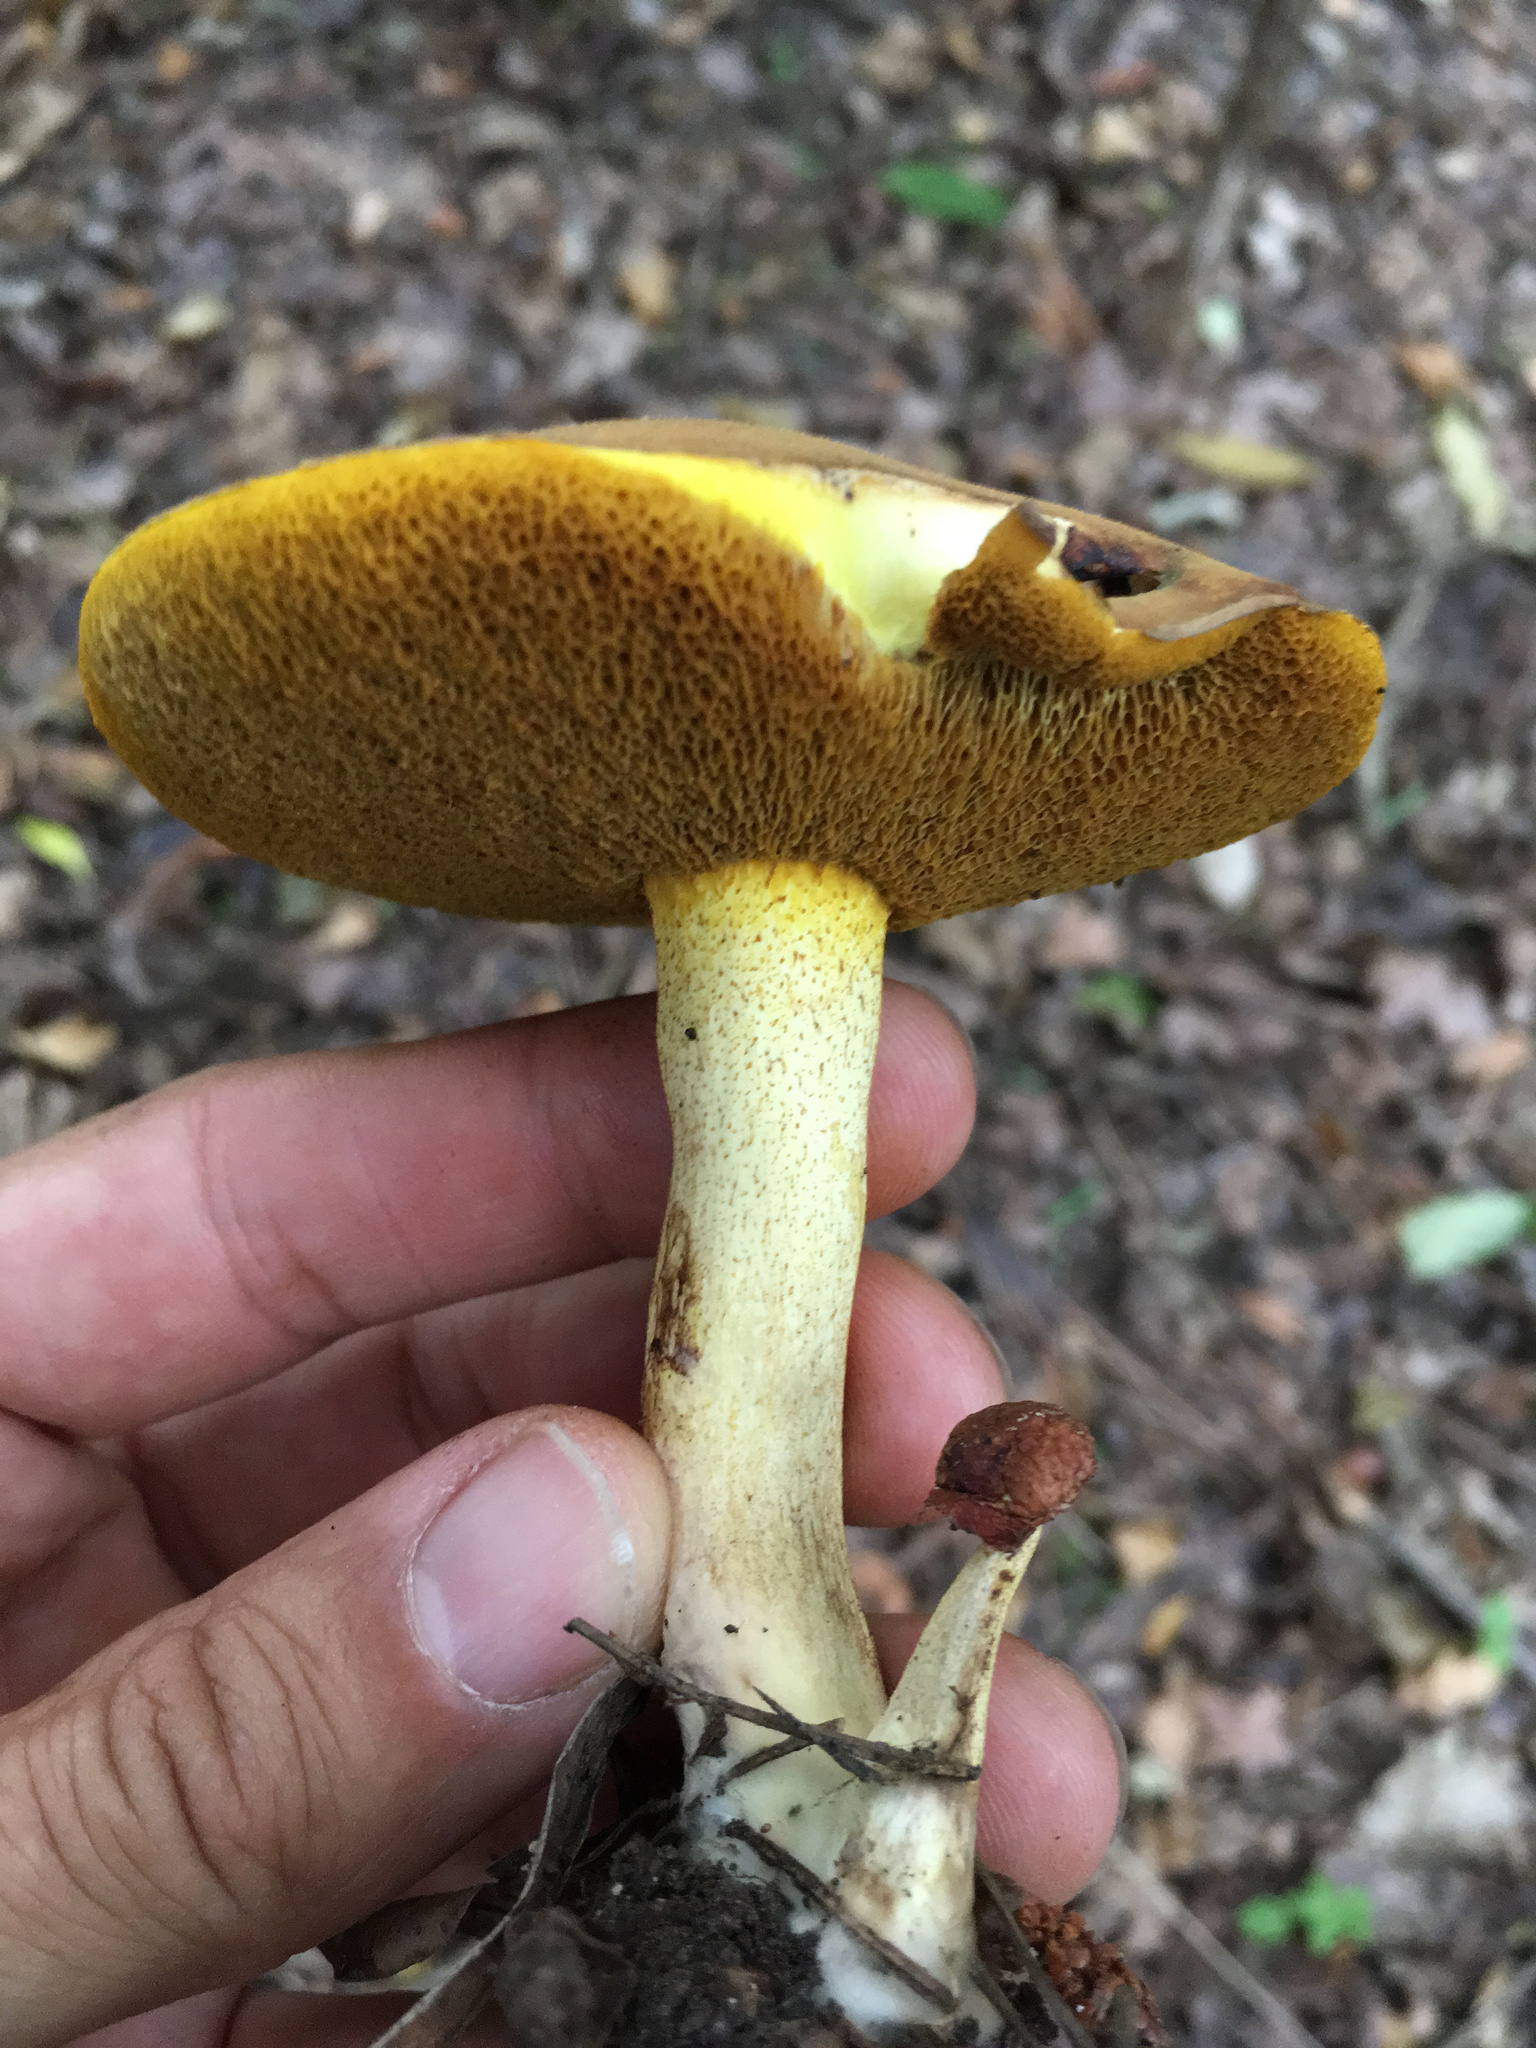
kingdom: Fungi
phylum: Basidiomycota
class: Agaricomycetes
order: Boletales
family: Suillaceae
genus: Suillus
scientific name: Suillus granulatus
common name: Weeping bolete
